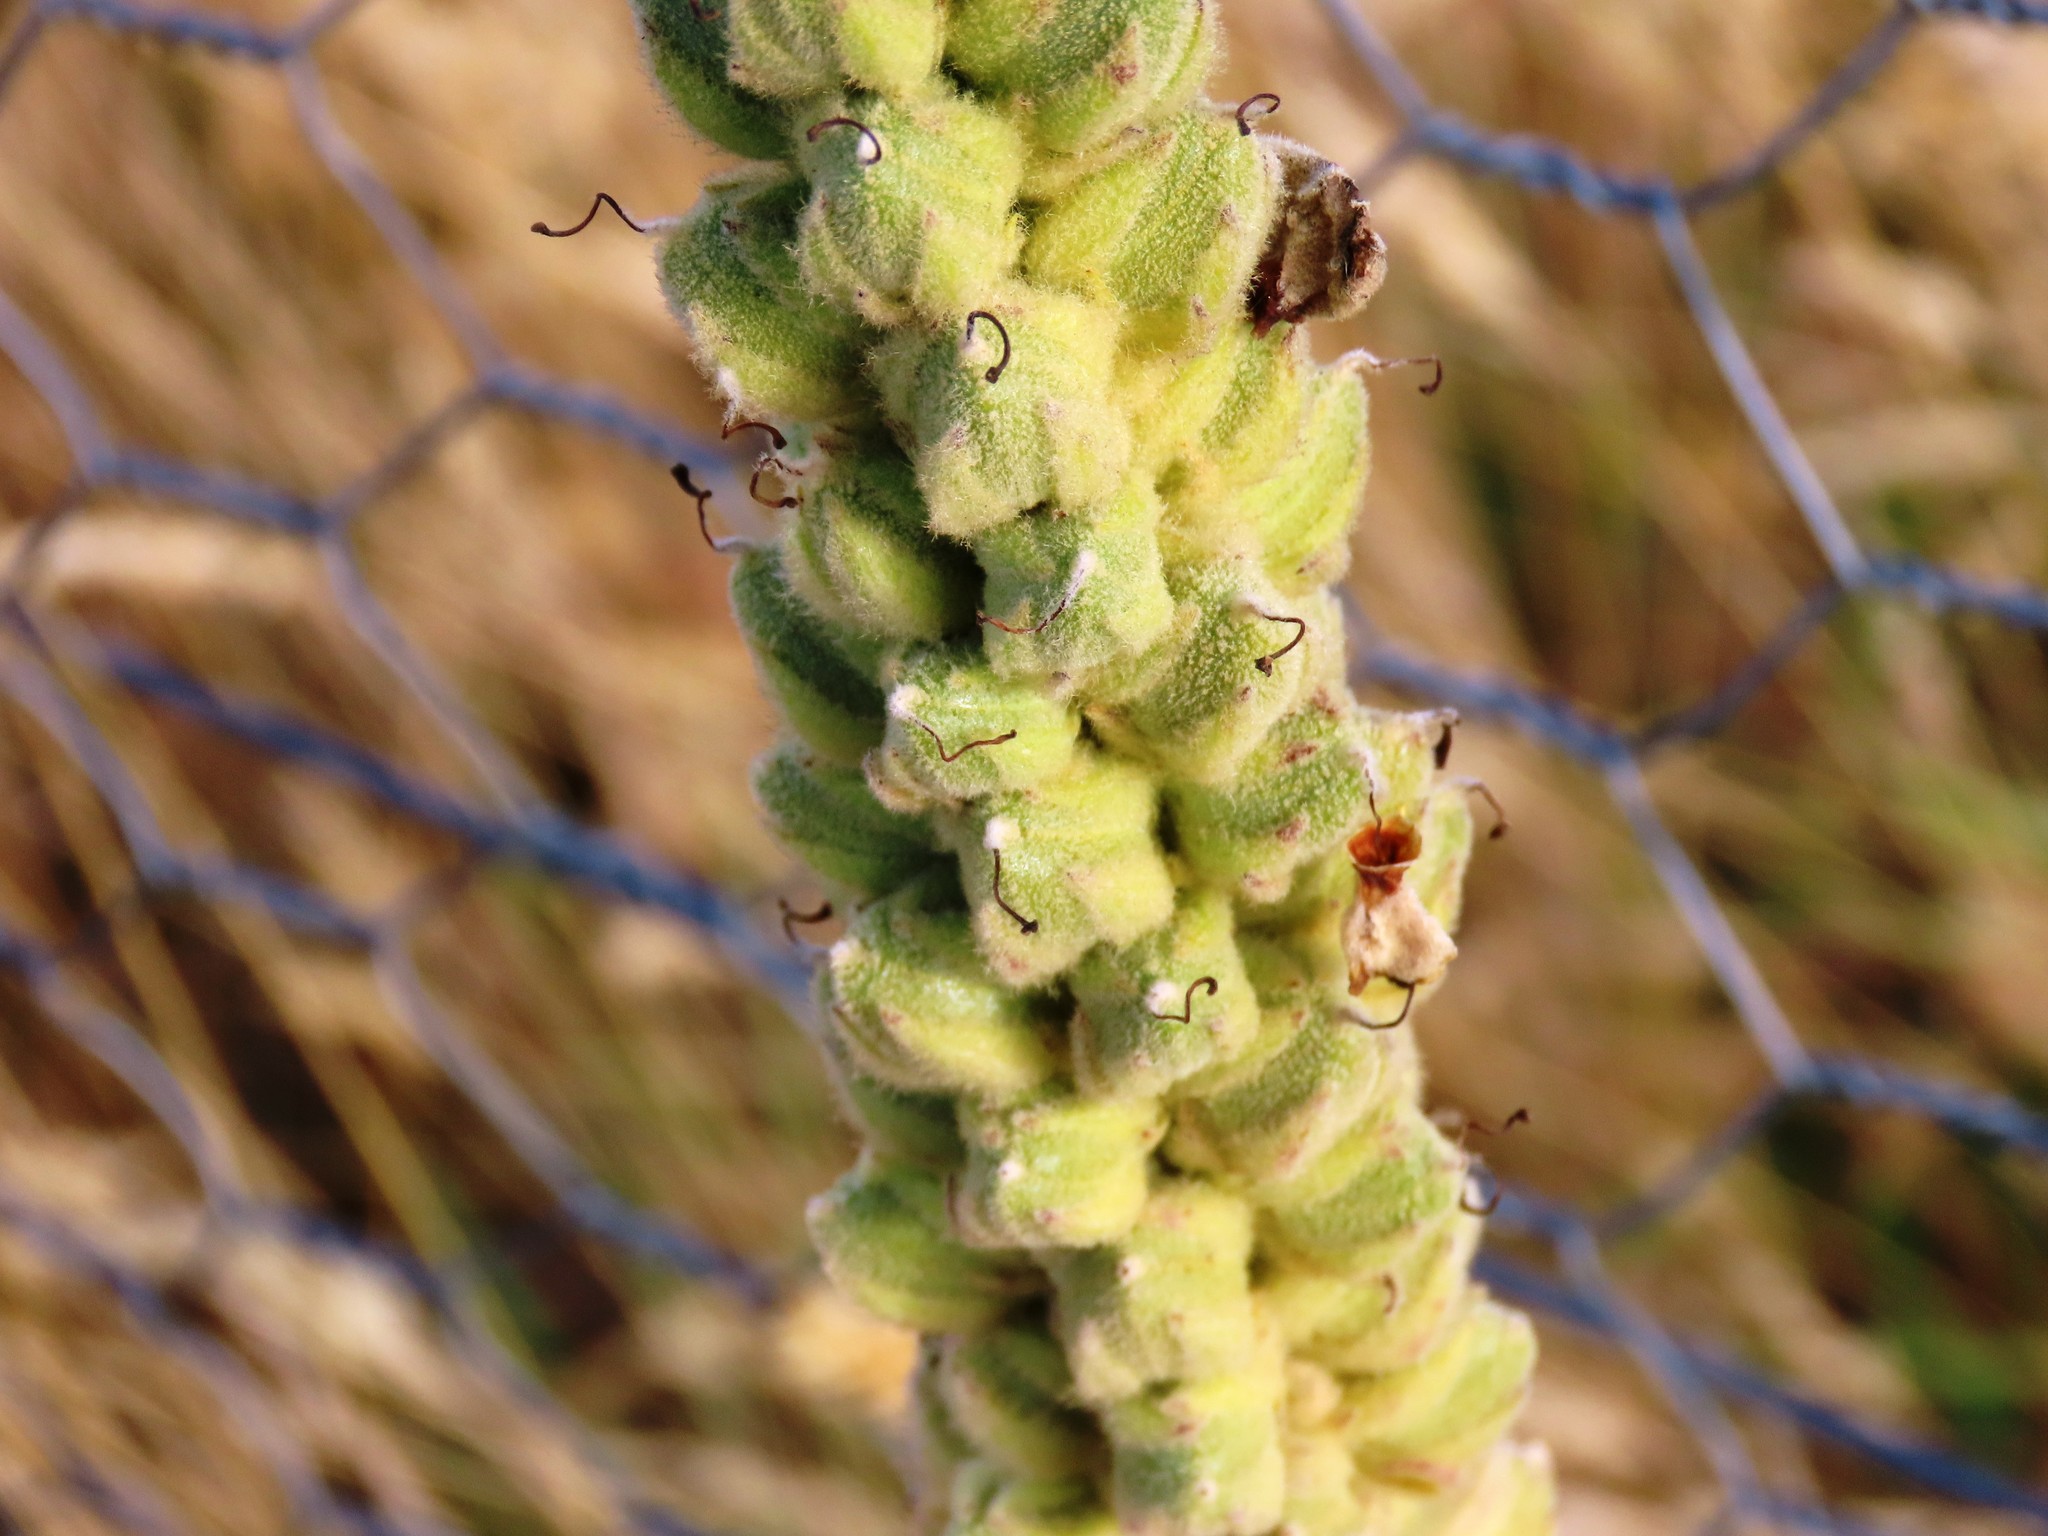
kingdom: Plantae
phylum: Tracheophyta
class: Magnoliopsida
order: Lamiales
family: Scrophulariaceae
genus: Verbascum
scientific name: Verbascum thapsus
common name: Common mullein
